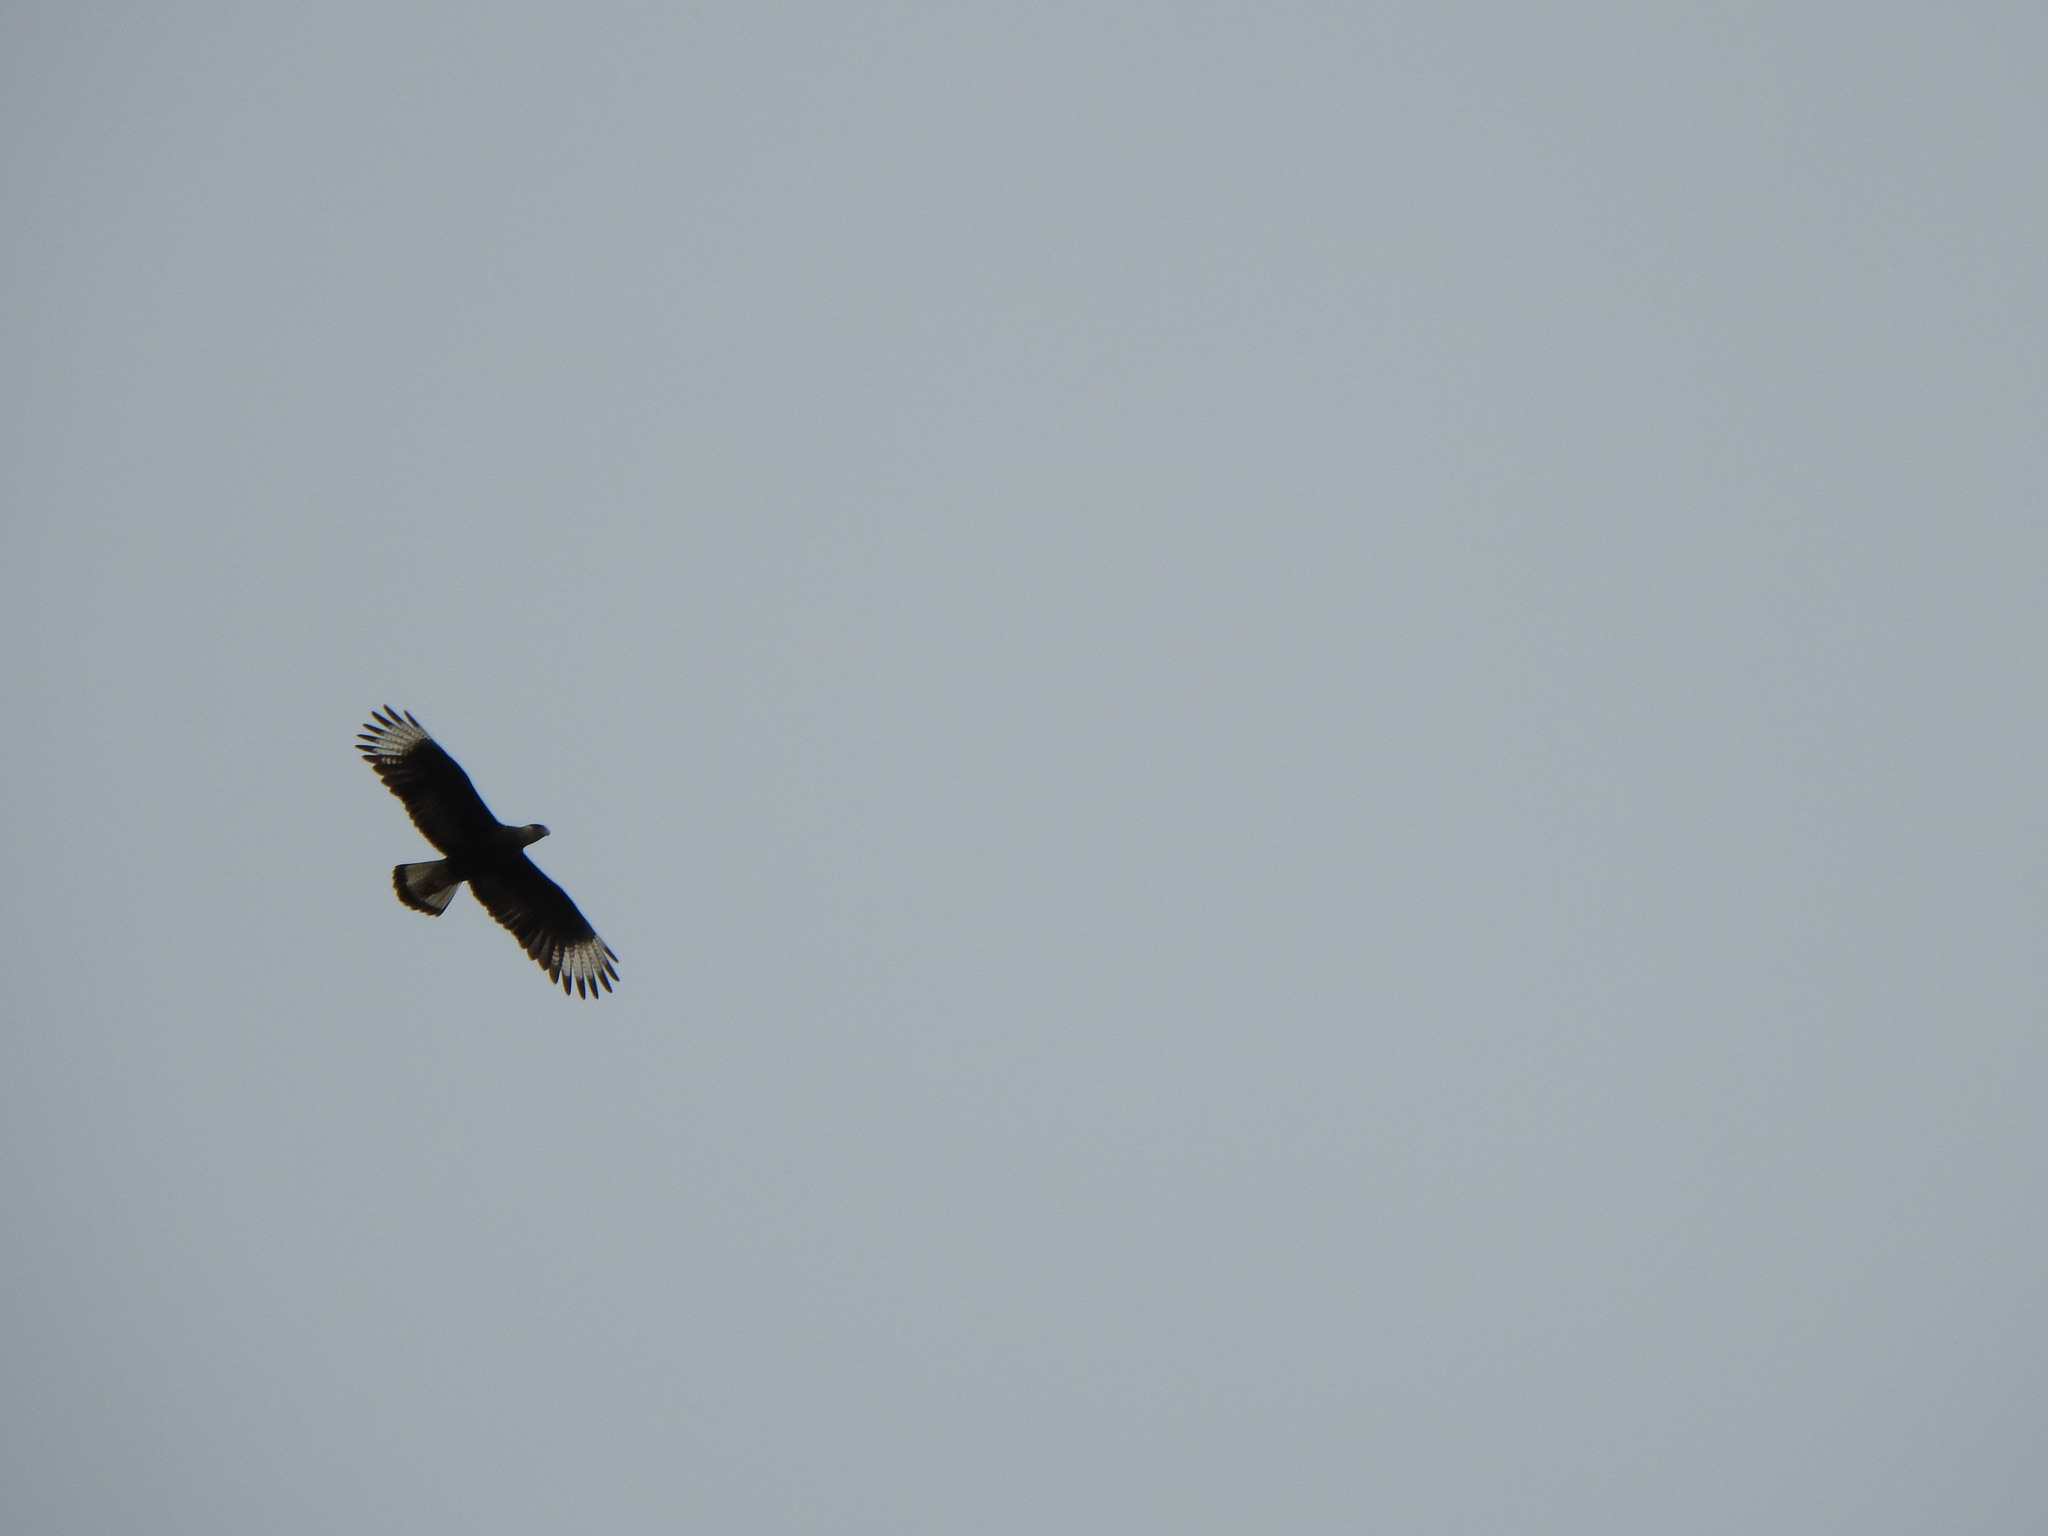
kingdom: Animalia
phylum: Chordata
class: Aves
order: Falconiformes
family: Falconidae
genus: Caracara
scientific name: Caracara plancus
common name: Southern caracara
